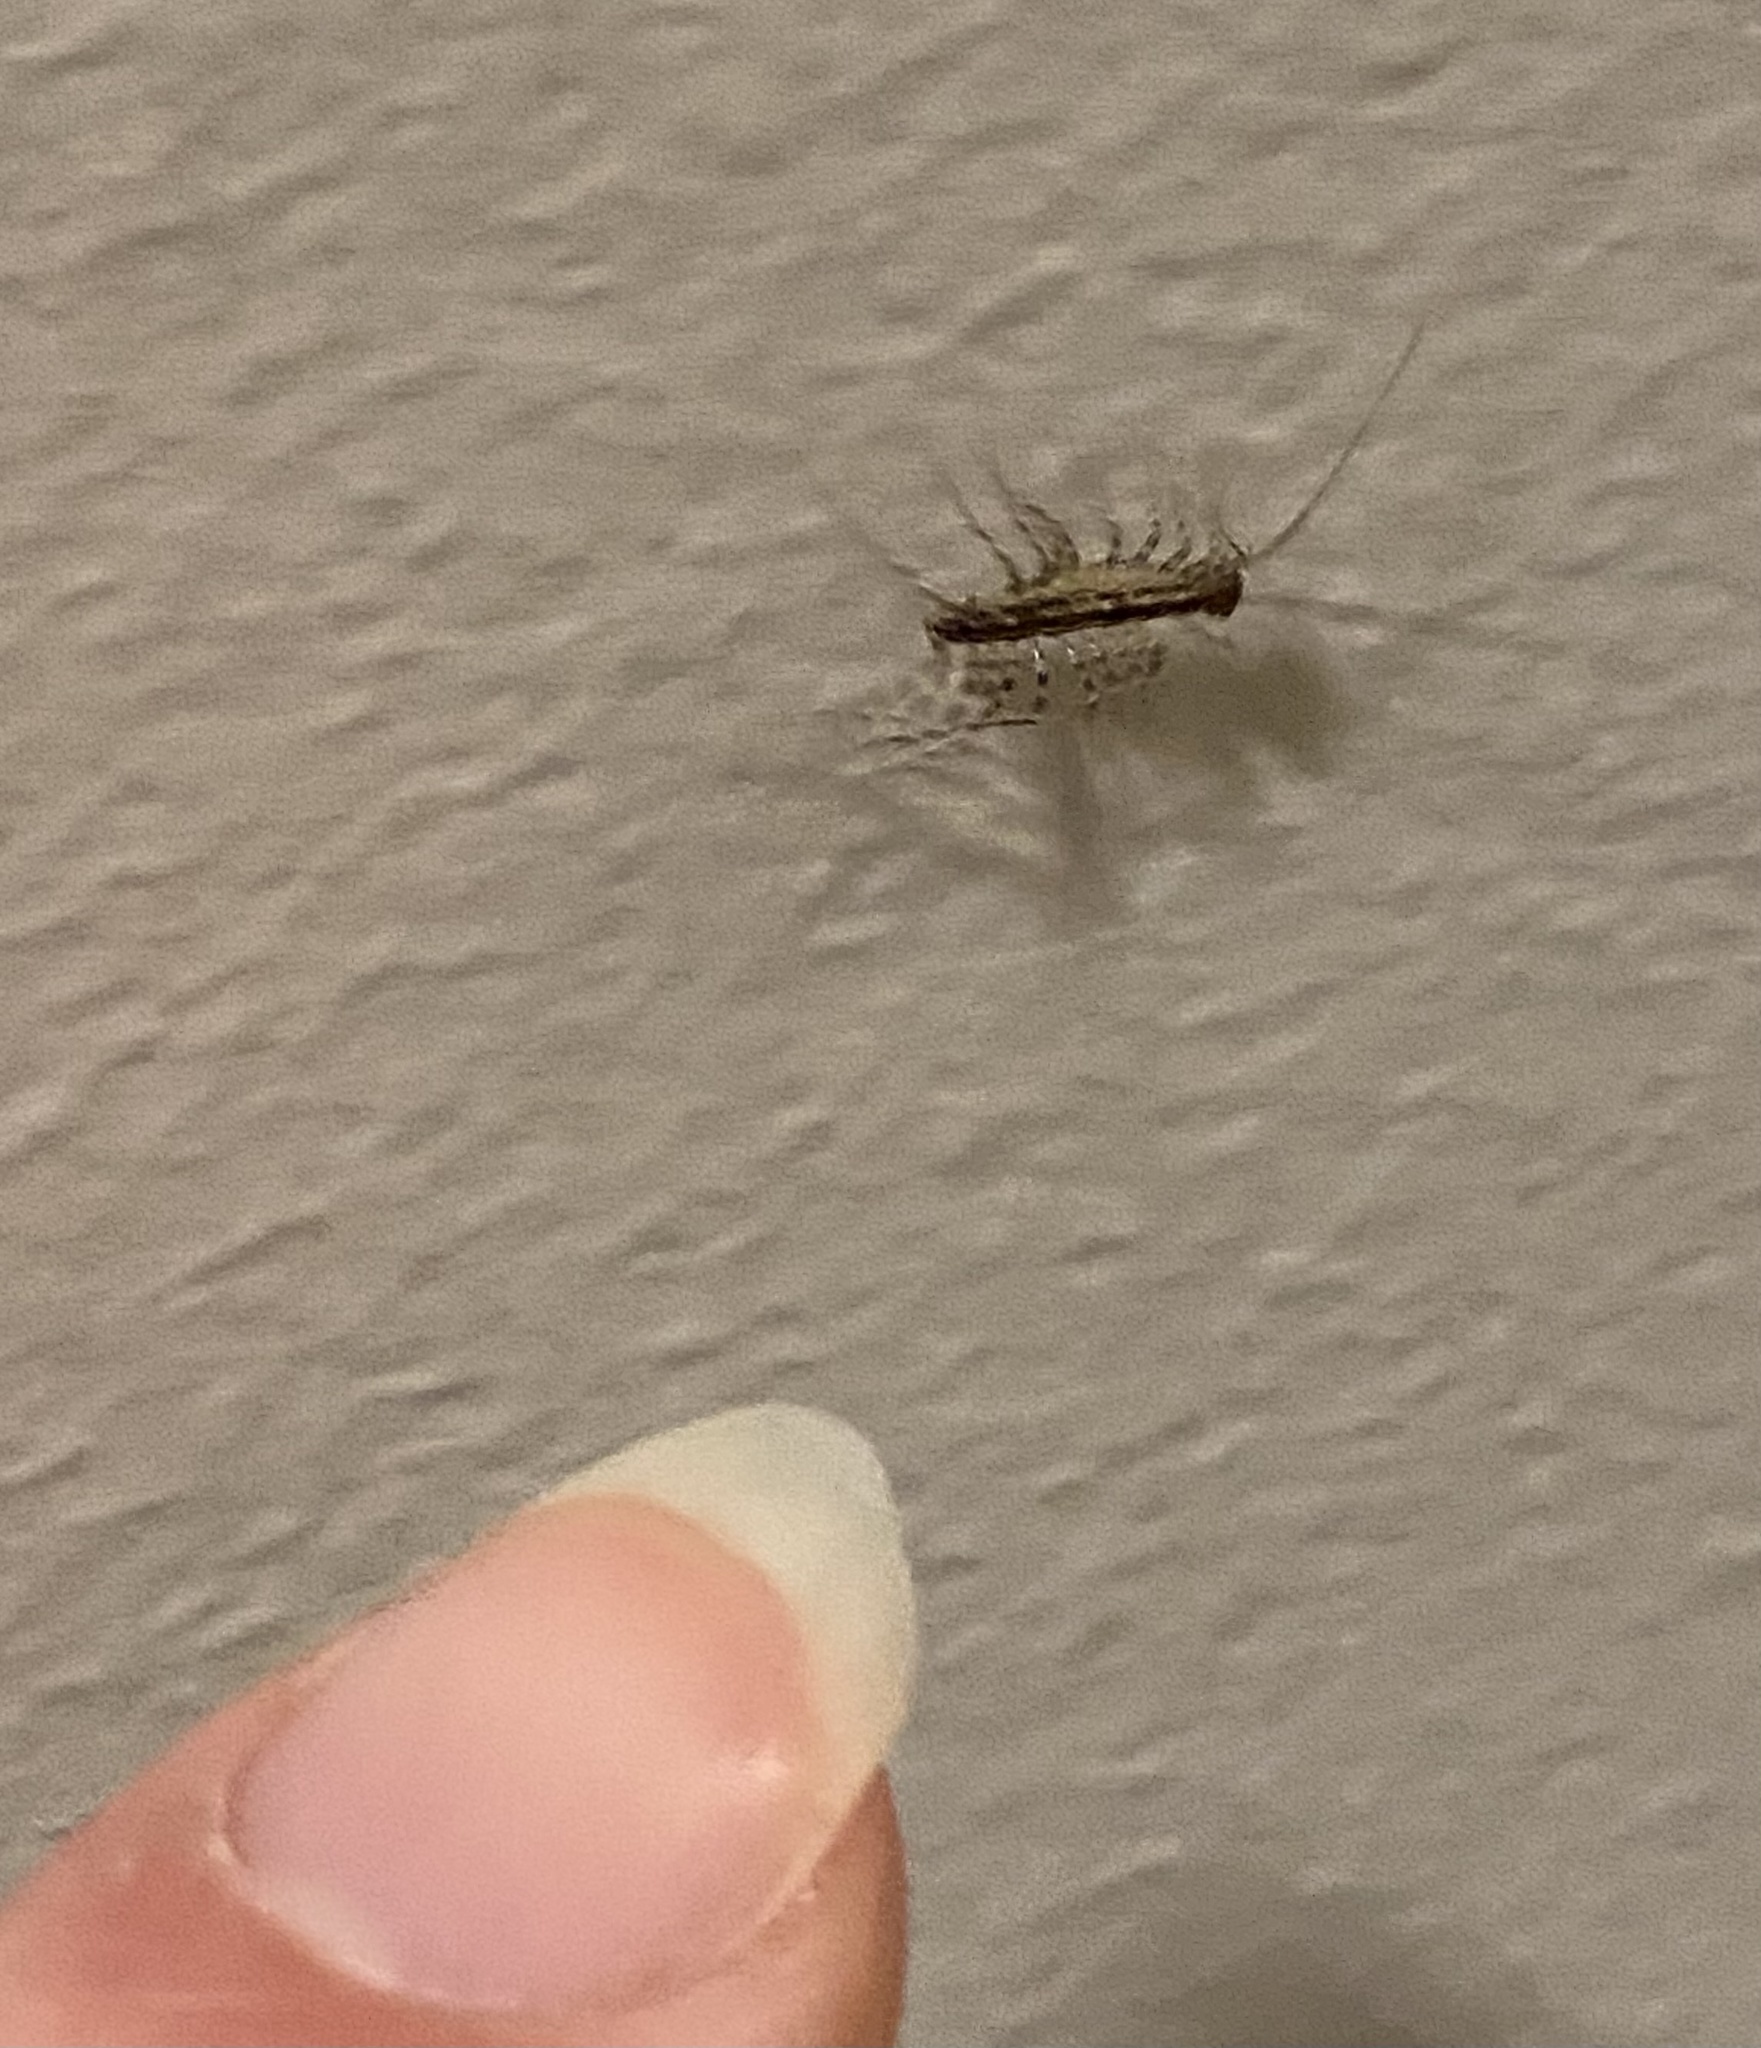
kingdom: Animalia
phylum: Arthropoda
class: Chilopoda
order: Scutigeromorpha
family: Scutigeridae
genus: Scutigera
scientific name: Scutigera coleoptrata
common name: House centipede
